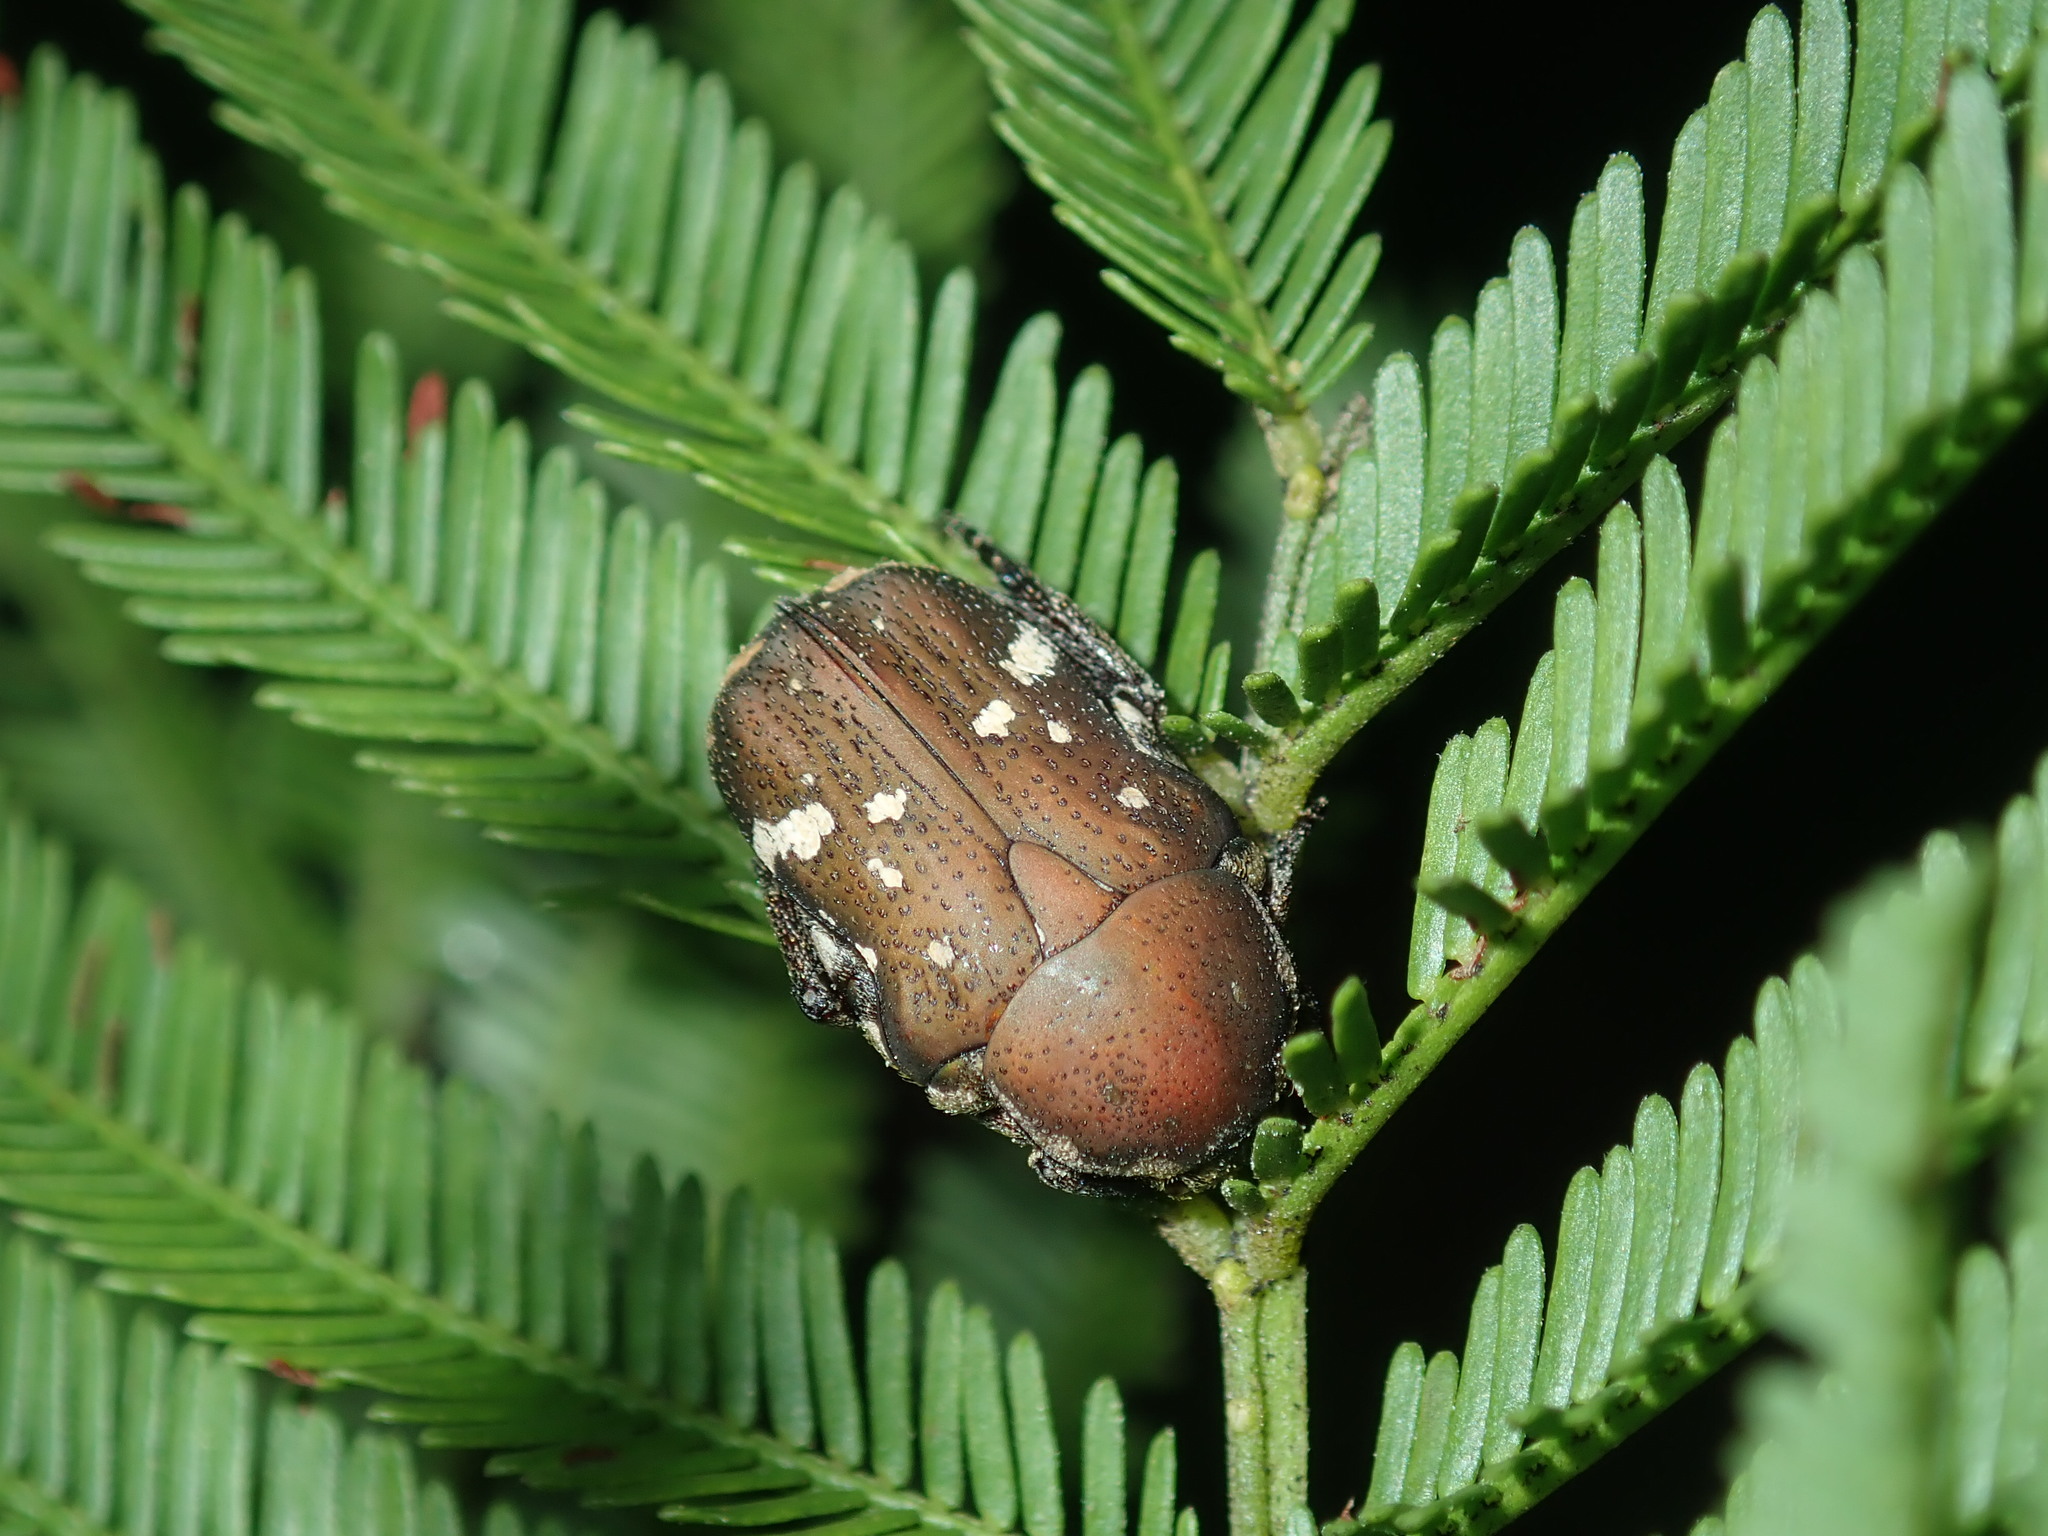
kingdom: Animalia
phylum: Arthropoda
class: Insecta
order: Coleoptera
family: Scarabaeidae
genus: Glycyphana
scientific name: Glycyphana stolata
